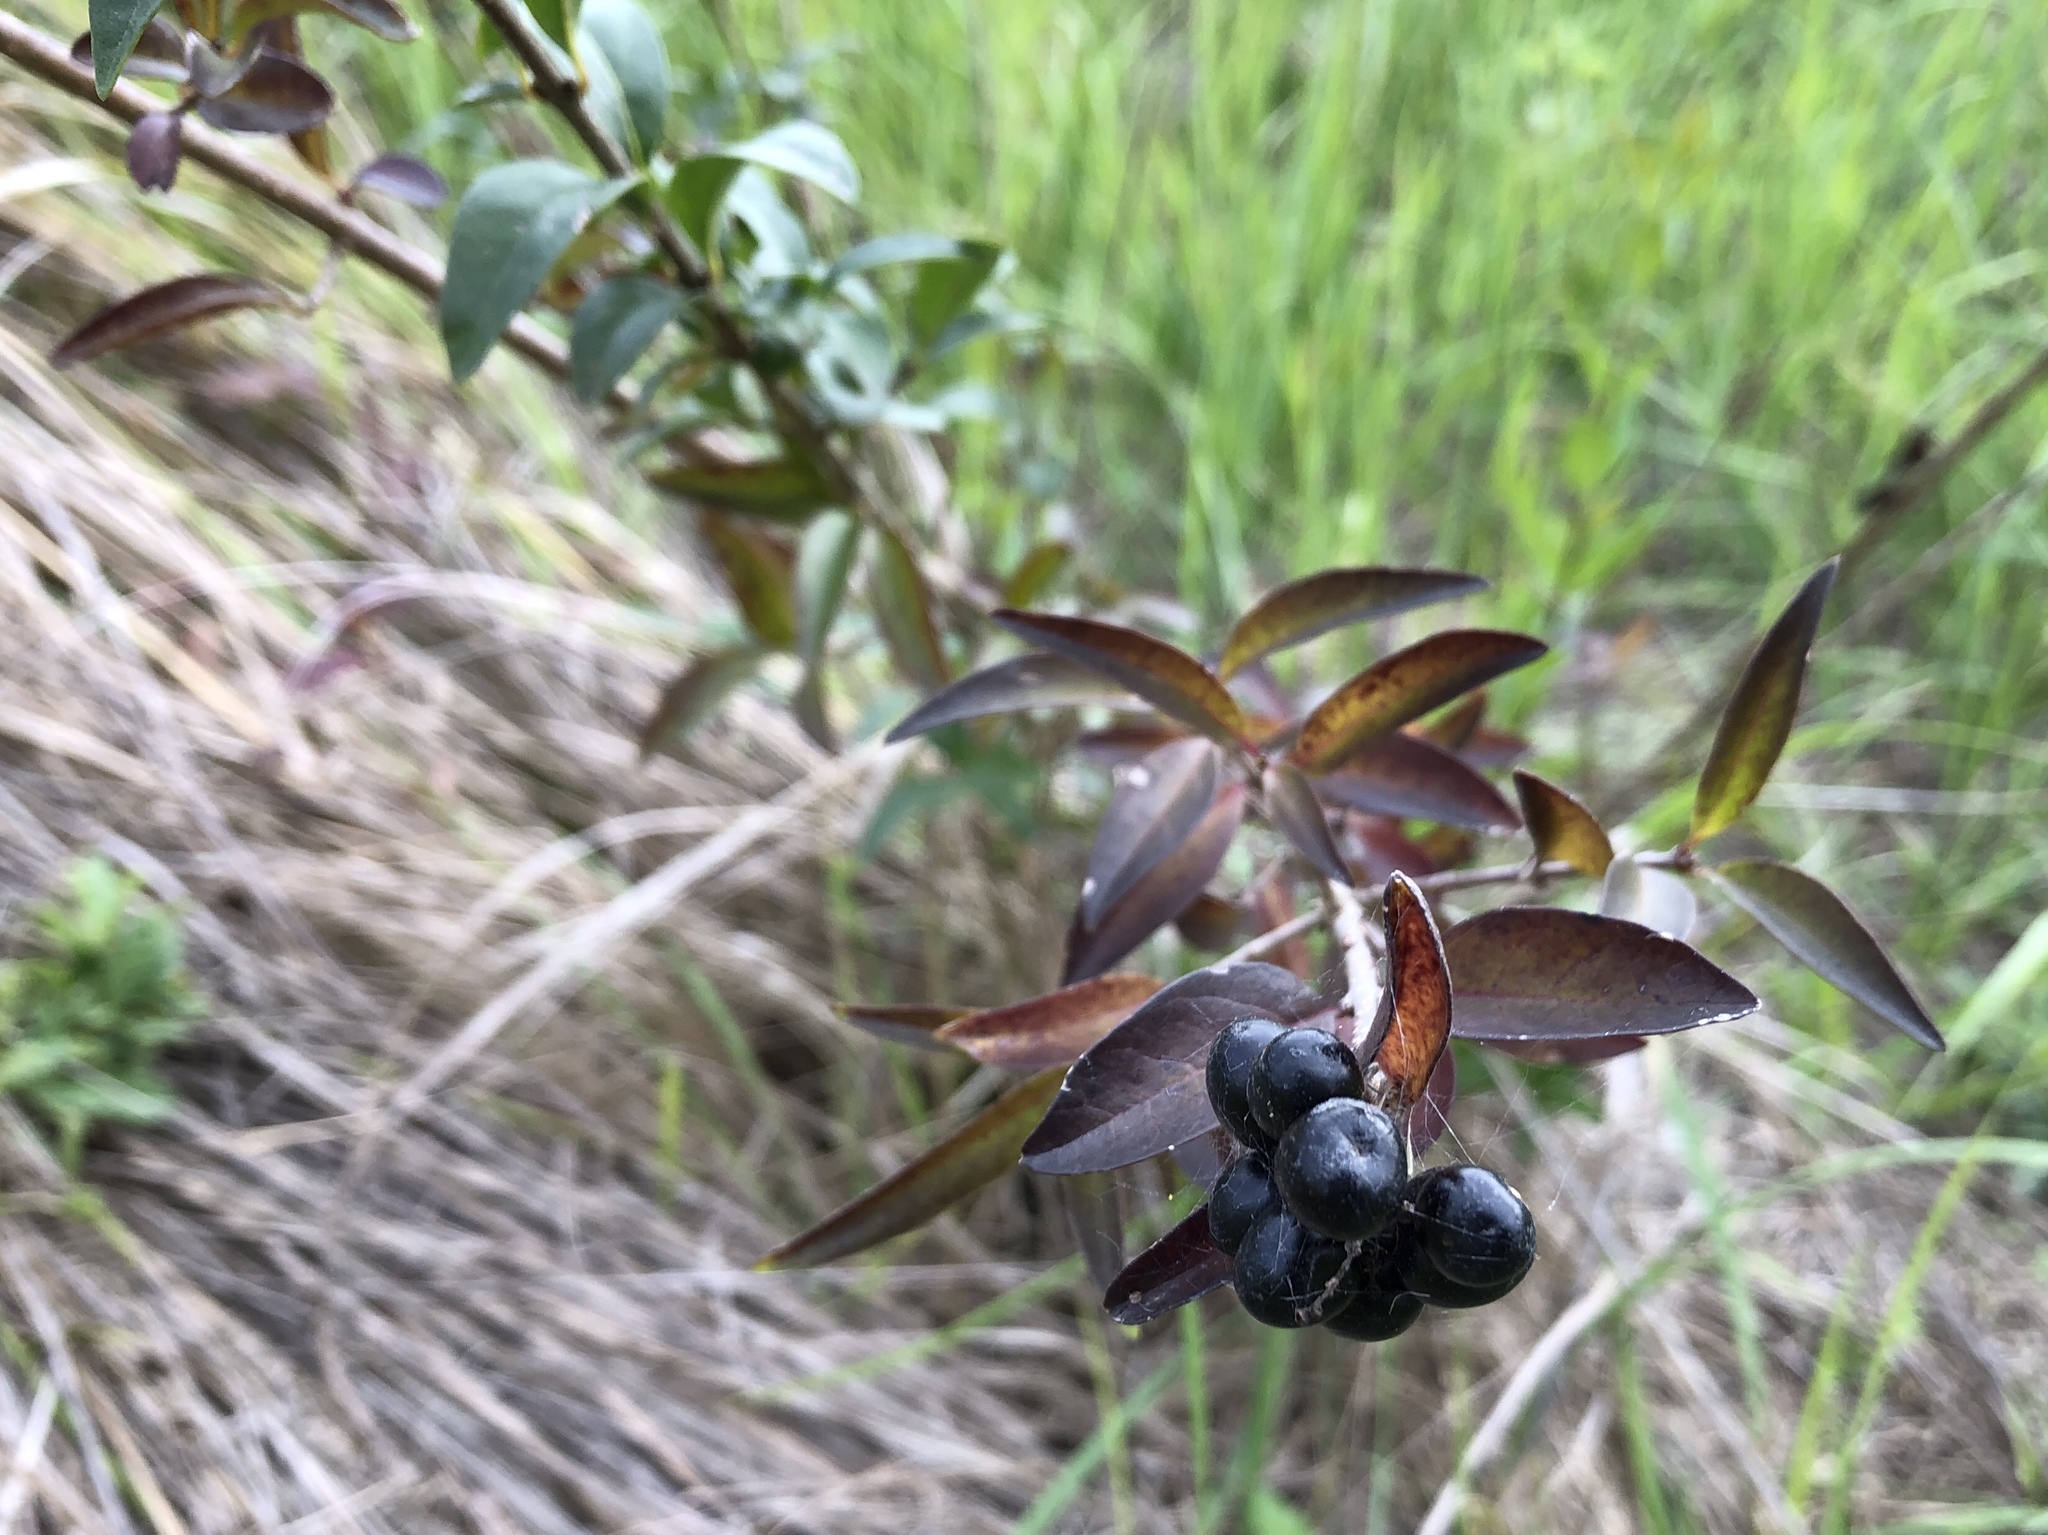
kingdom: Plantae
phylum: Tracheophyta
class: Magnoliopsida
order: Lamiales
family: Oleaceae
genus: Ligustrum
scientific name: Ligustrum vulgare
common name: Wild privet
